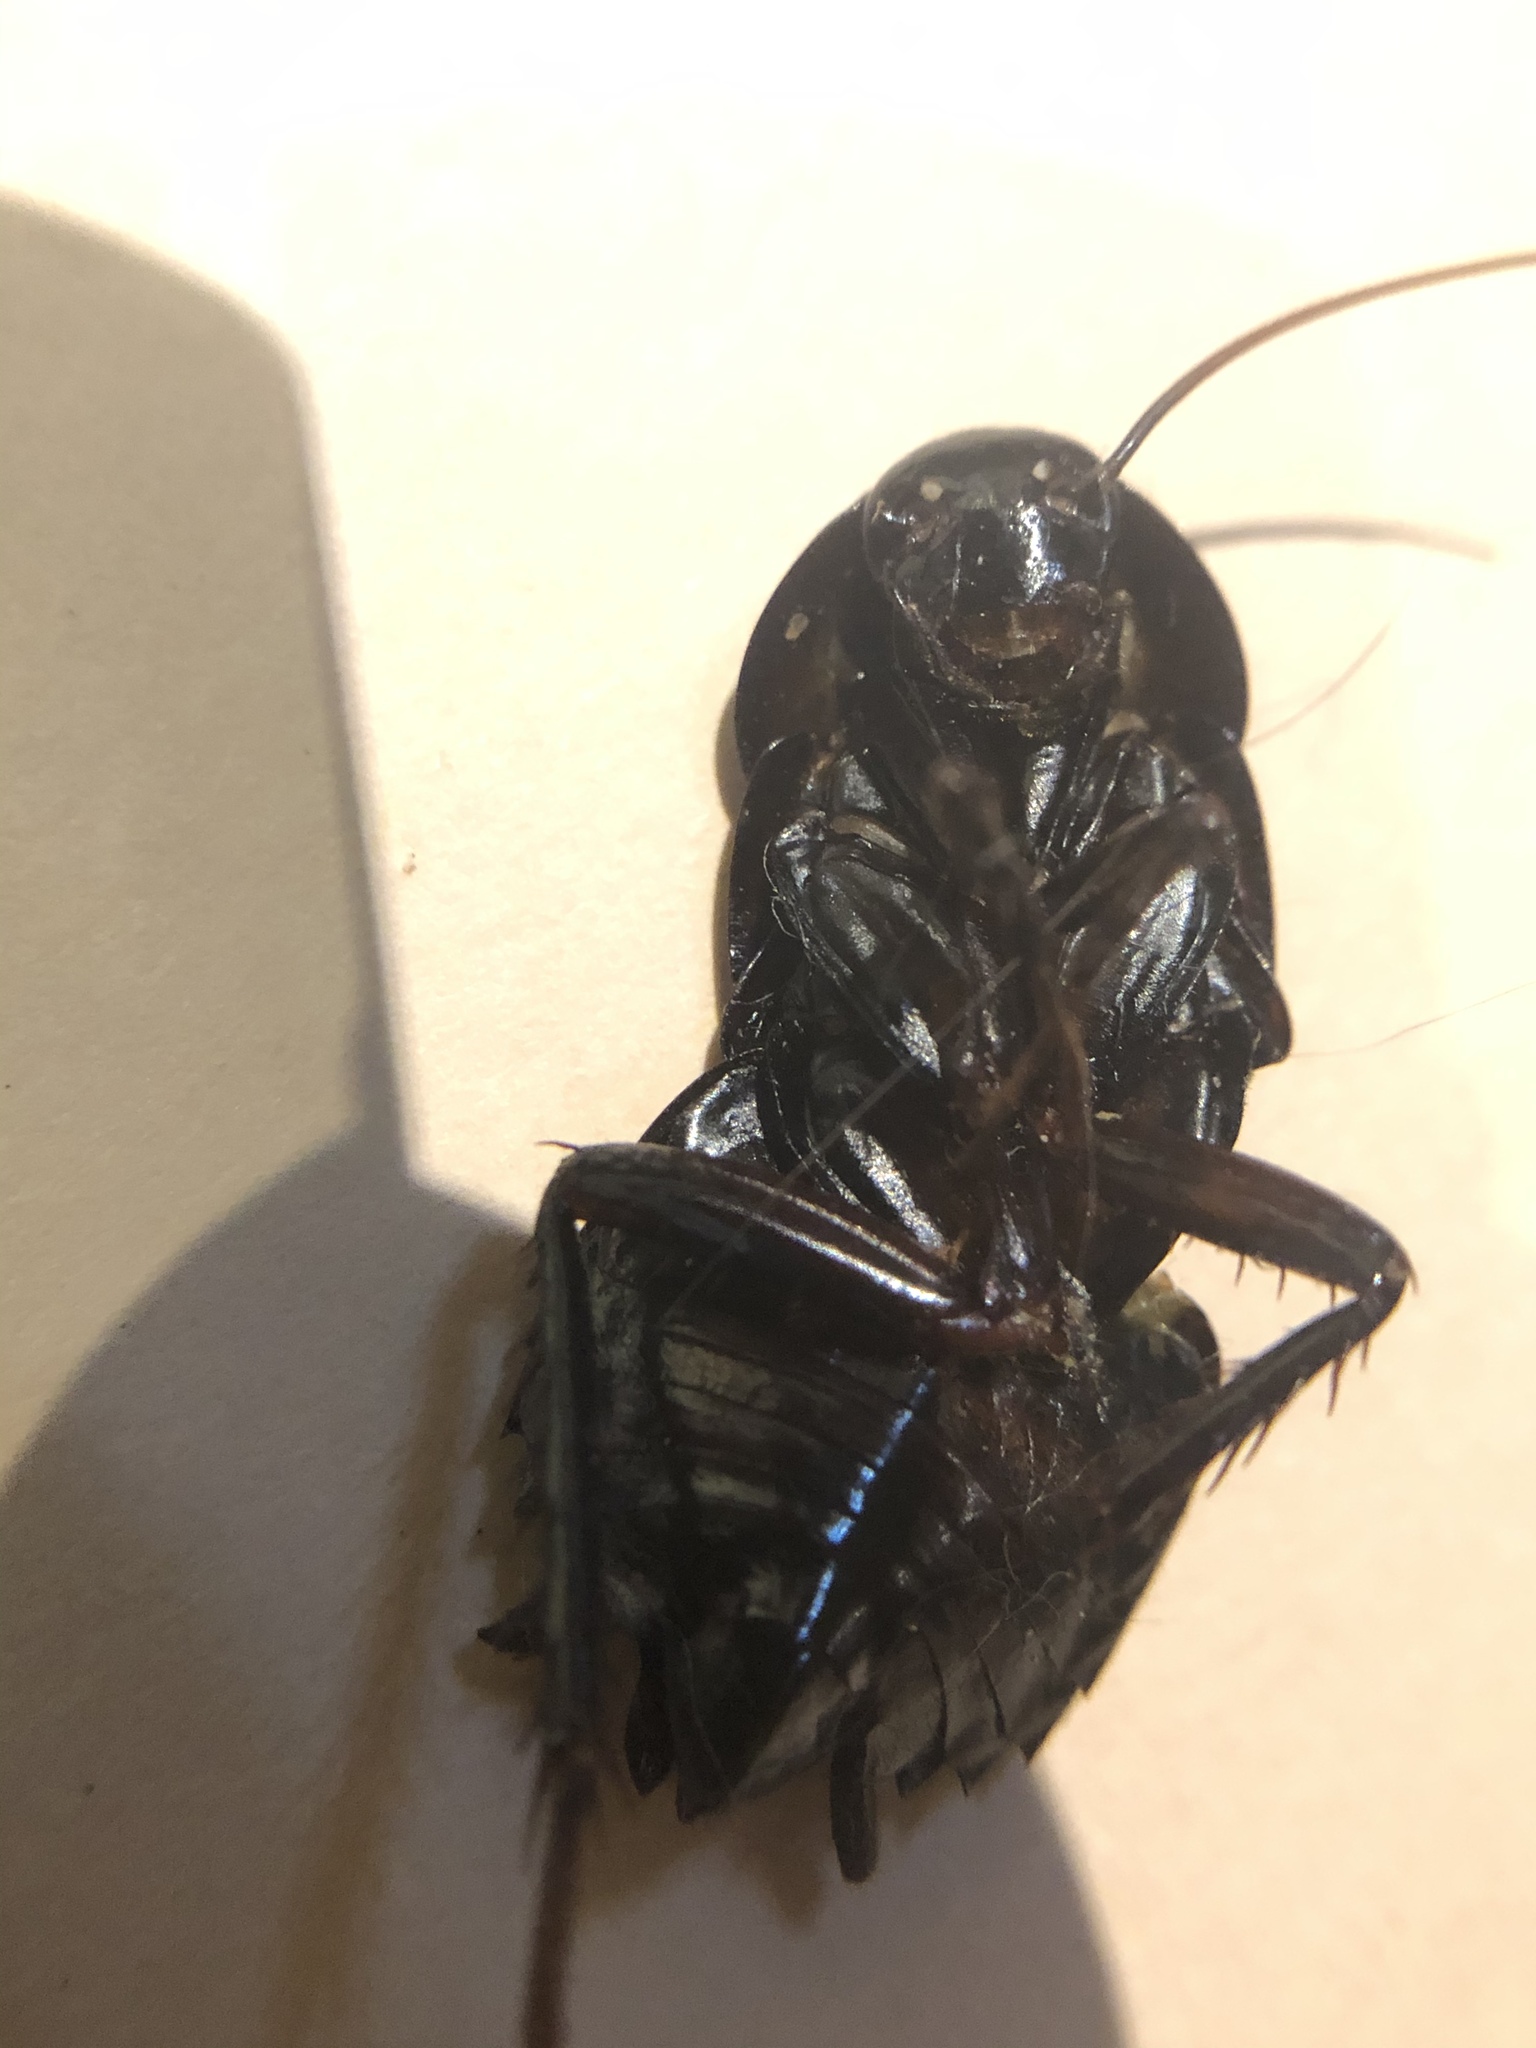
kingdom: Animalia
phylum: Arthropoda
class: Insecta
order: Blattodea
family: Blattidae
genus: Blatta
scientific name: Blatta orientalis
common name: Oriental cockroach
